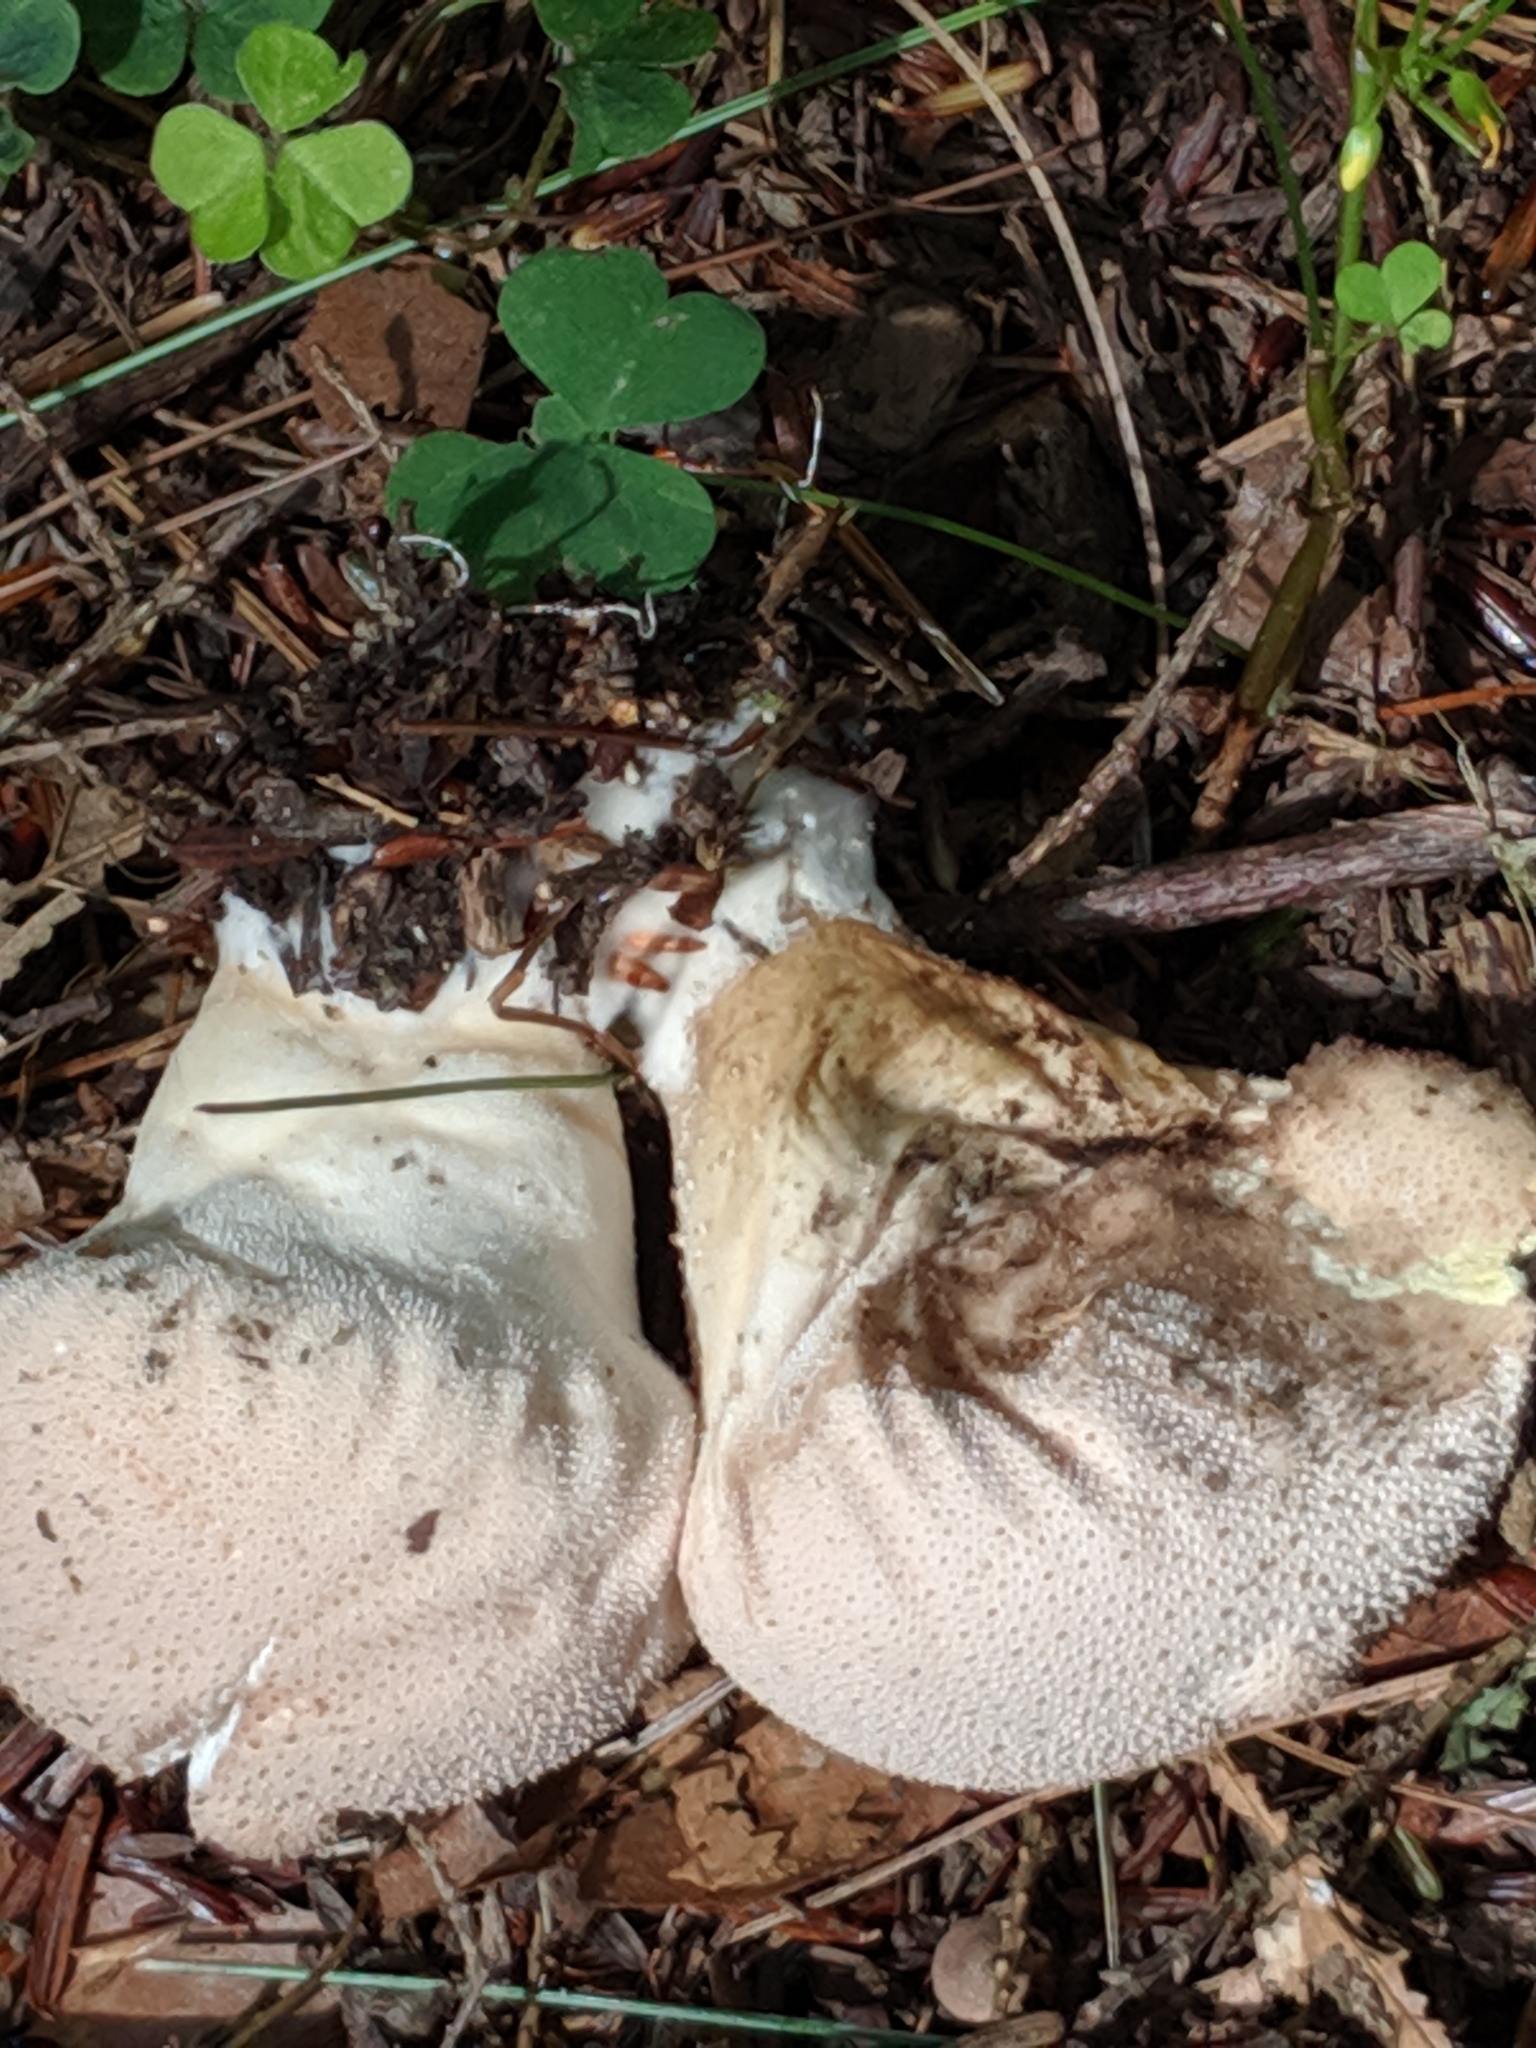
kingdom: Fungi
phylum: Basidiomycota
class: Agaricomycetes
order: Agaricales
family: Lycoperdaceae
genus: Lycoperdon
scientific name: Lycoperdon perlatum
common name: Common puffball
